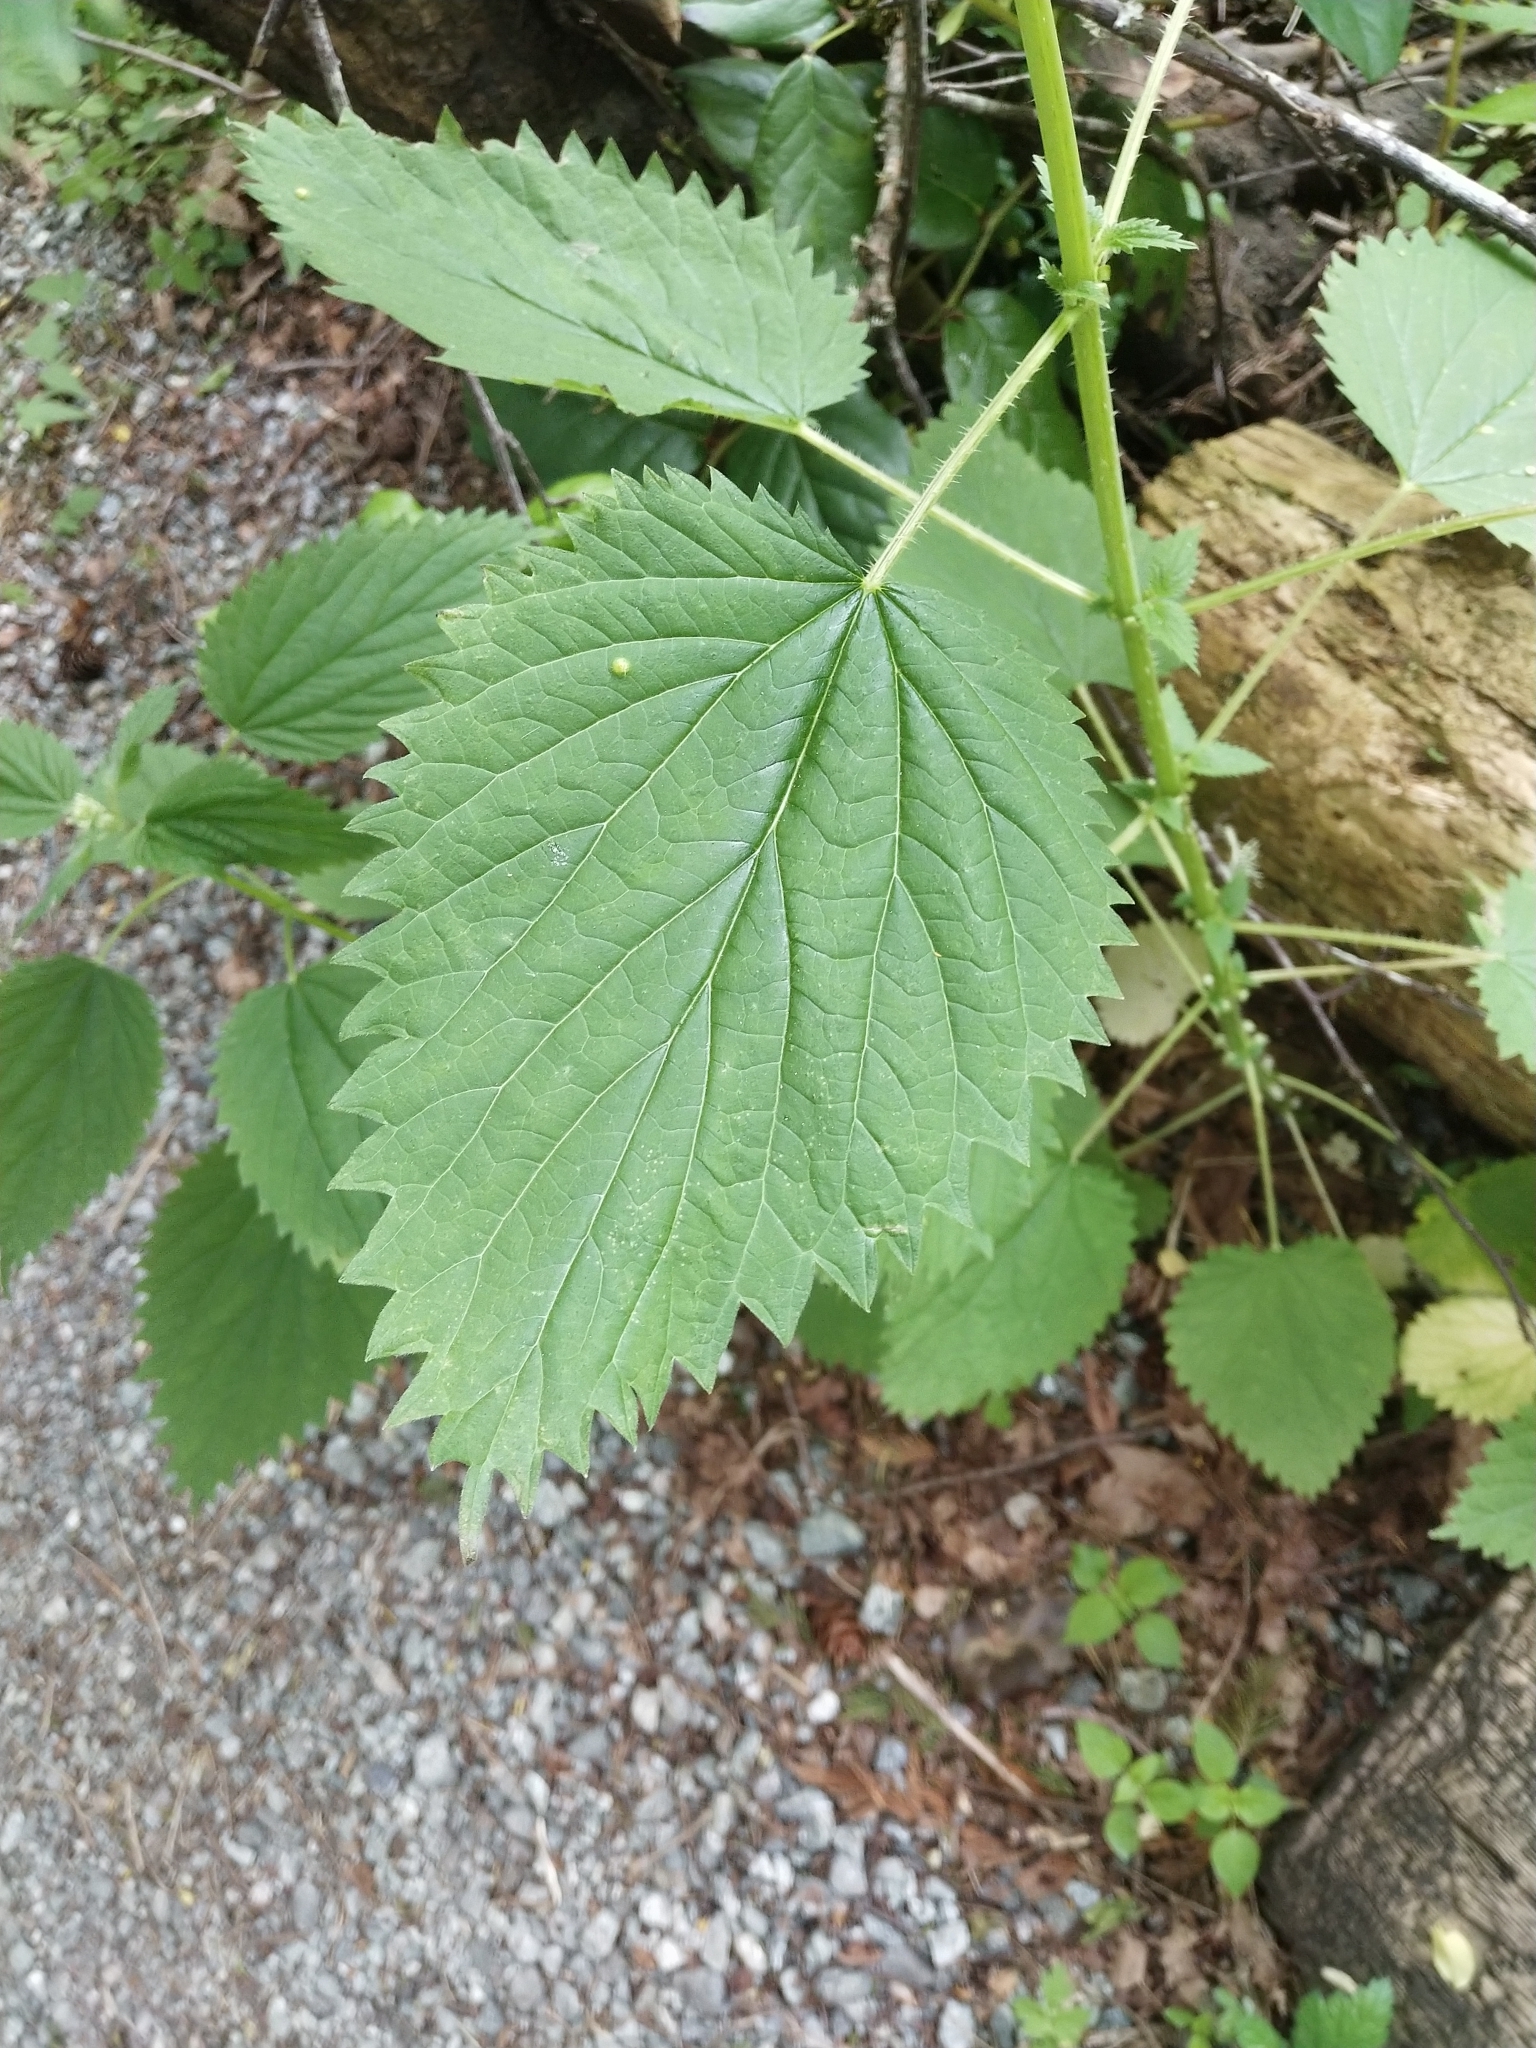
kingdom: Plantae
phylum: Tracheophyta
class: Magnoliopsida
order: Rosales
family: Urticaceae
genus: Urtica
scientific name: Urtica gracilis
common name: Slender stinging nettle
